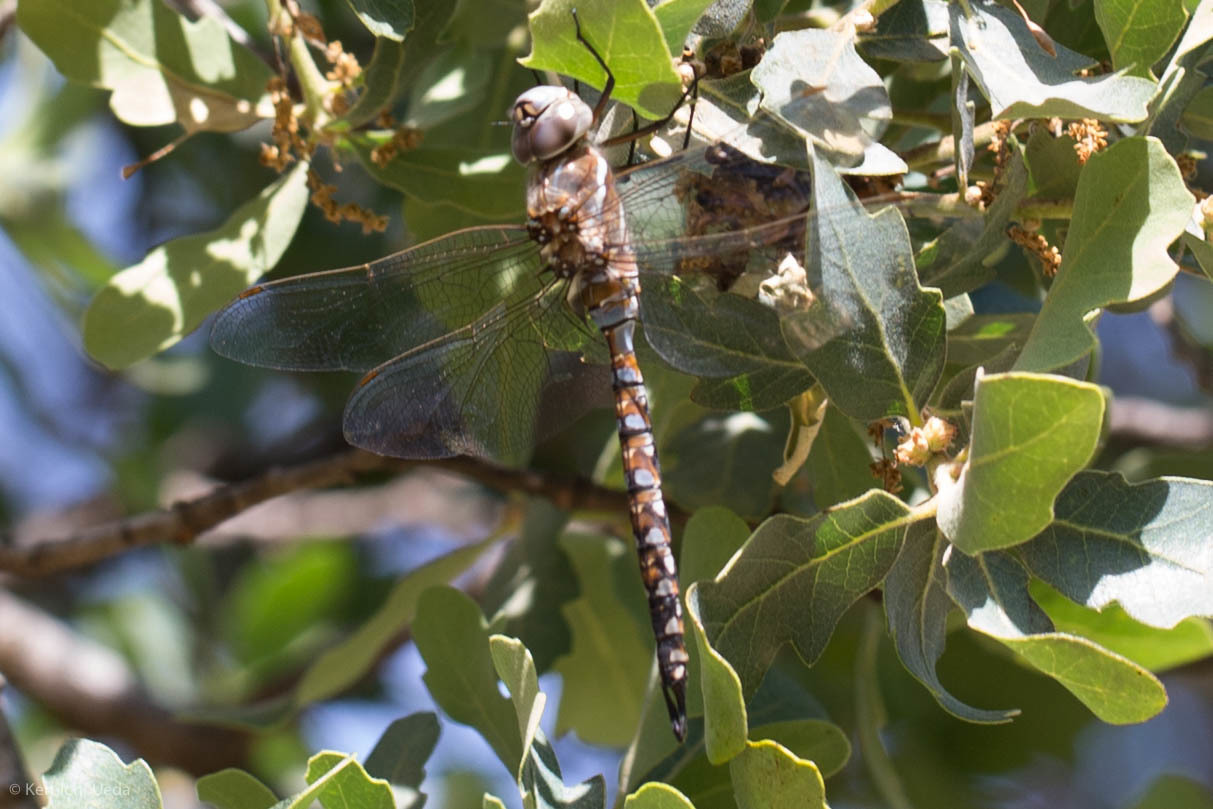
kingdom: Animalia
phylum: Arthropoda
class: Insecta
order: Odonata
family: Aeshnidae
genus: Rhionaeschna
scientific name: Rhionaeschna multicolor
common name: Blue-eyed darner
